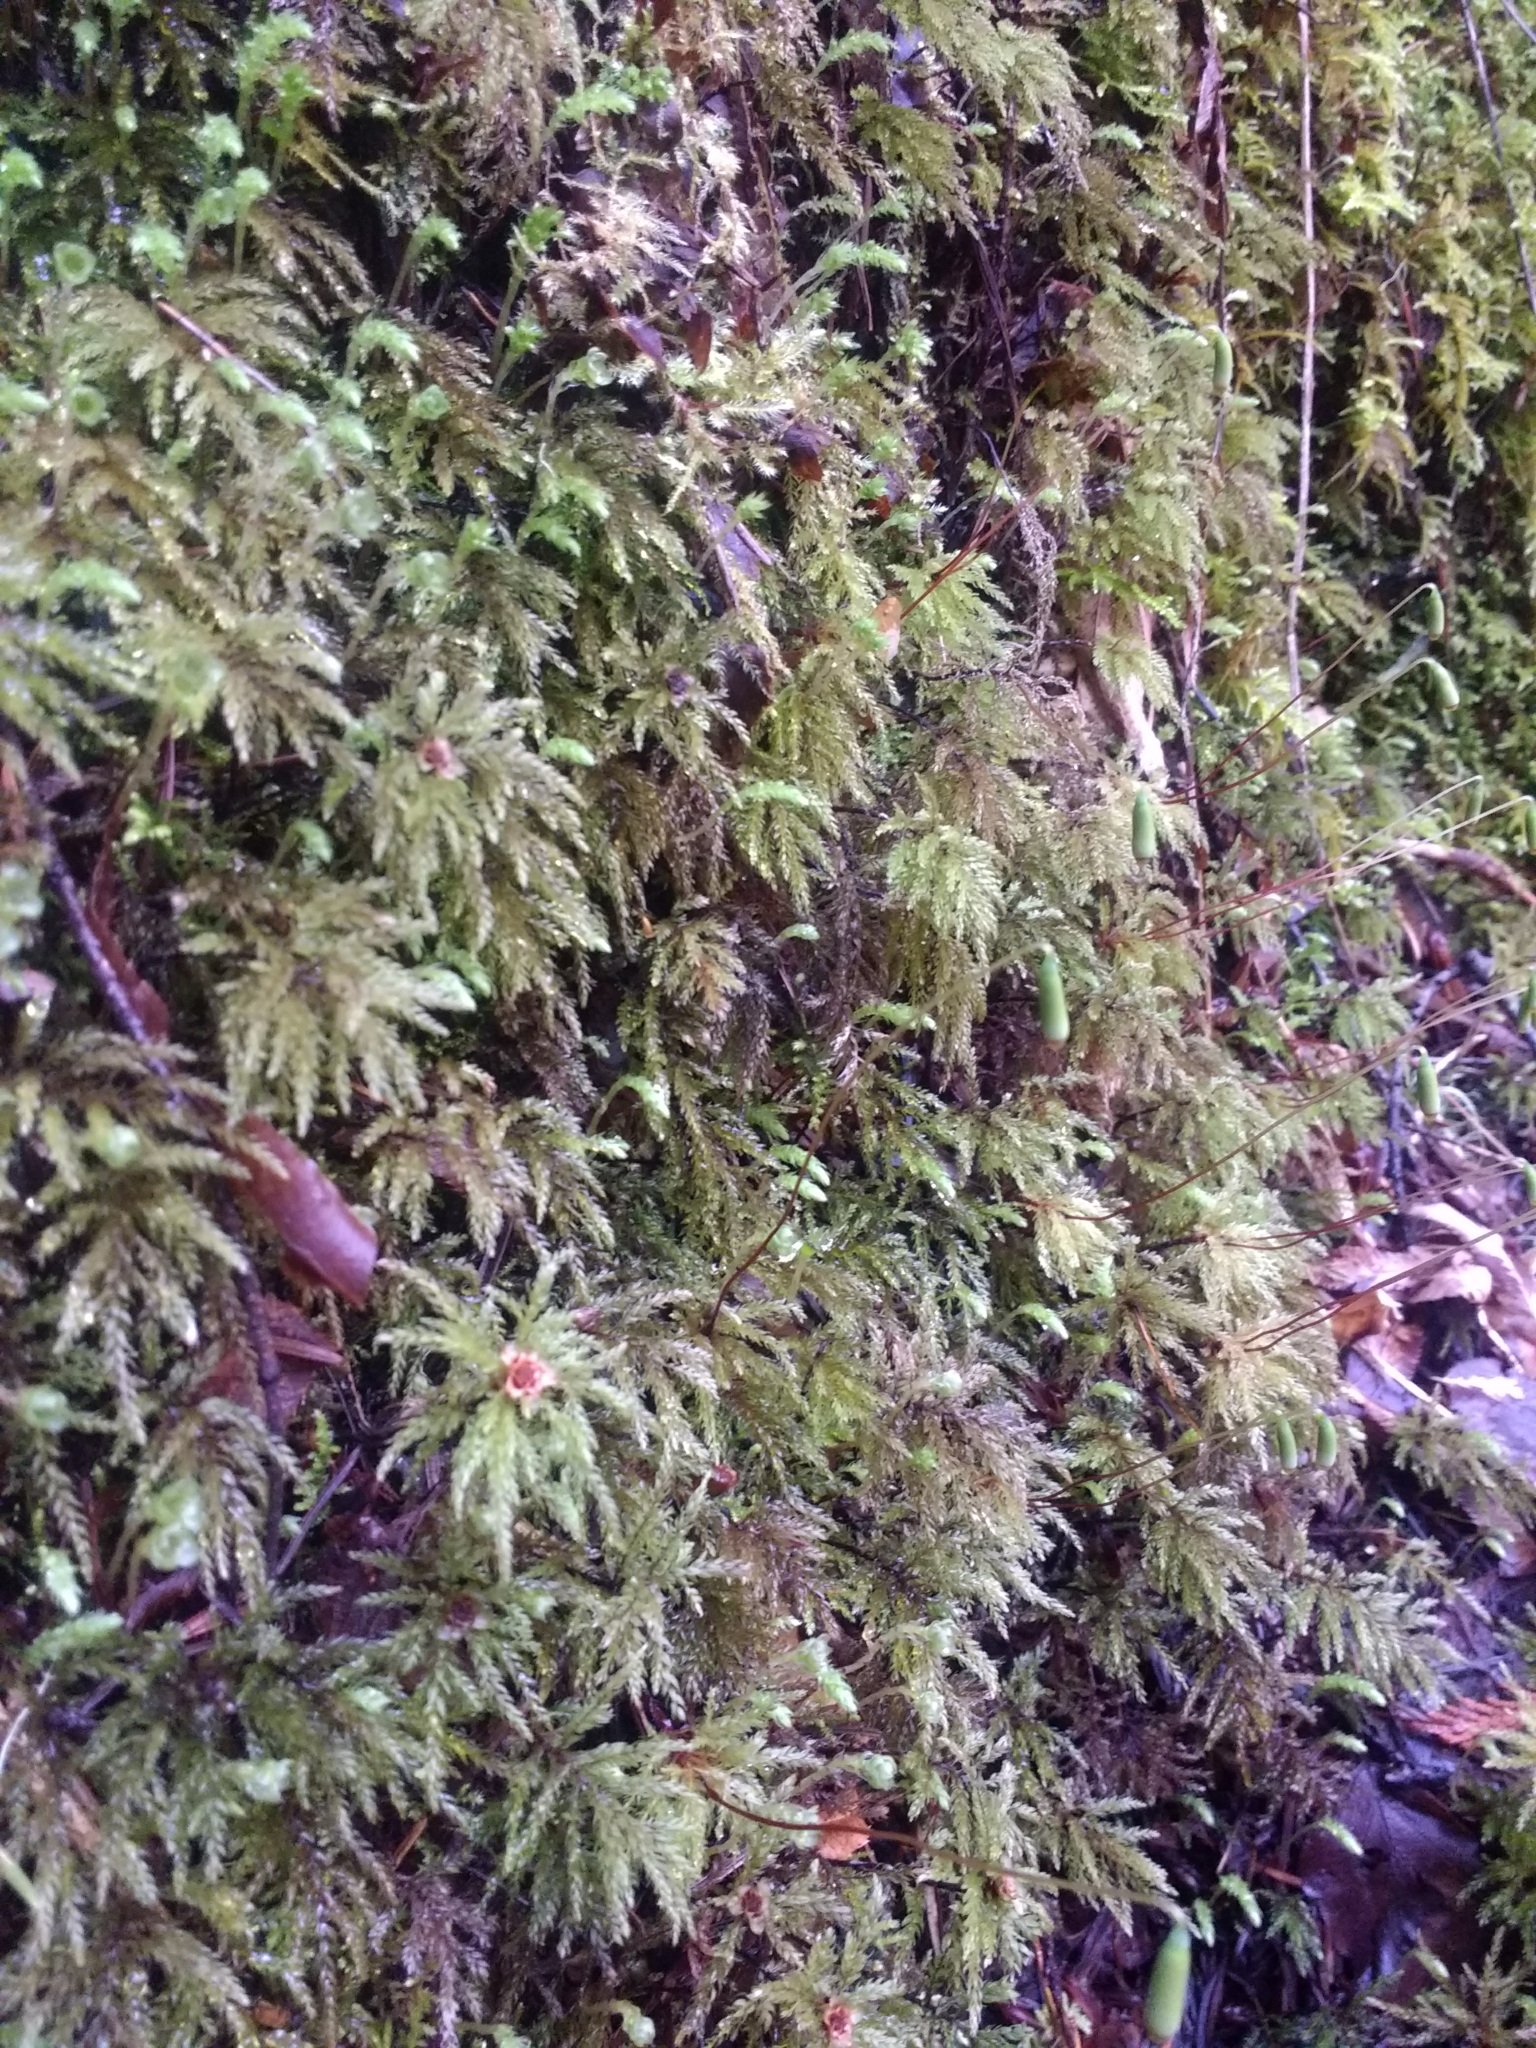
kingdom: Plantae
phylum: Bryophyta
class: Bryopsida
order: Bryales
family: Mniaceae
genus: Leucolepis
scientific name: Leucolepis acanthoneura
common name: Leucolepis umbrella moss
